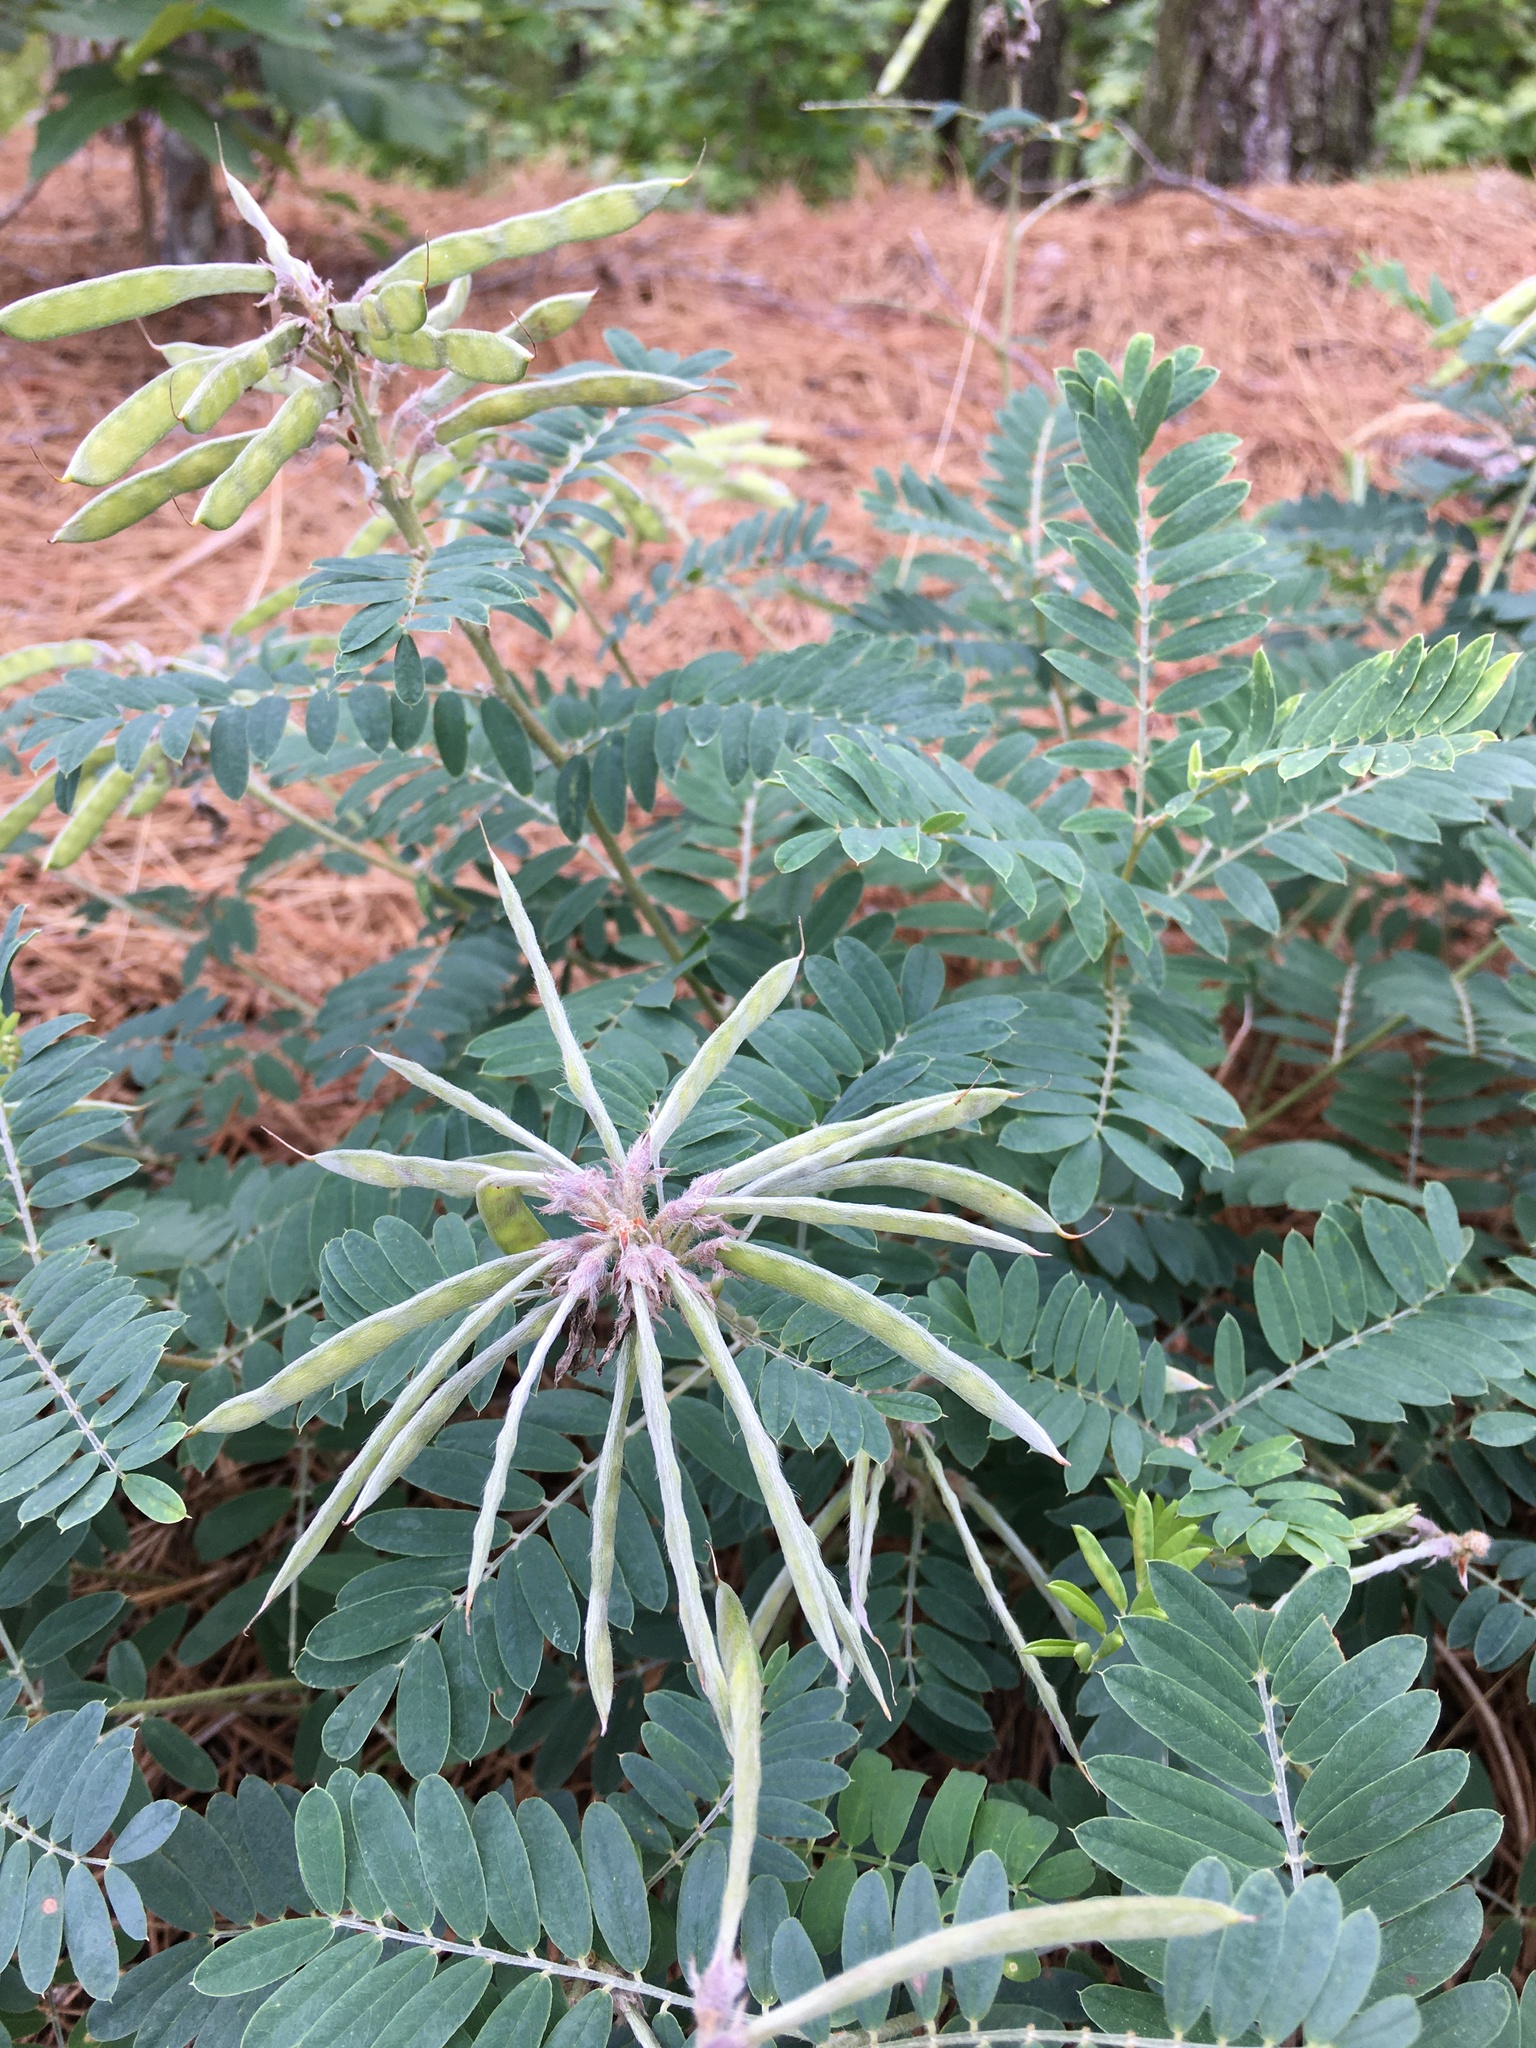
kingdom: Plantae
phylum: Tracheophyta
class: Magnoliopsida
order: Fabales
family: Fabaceae
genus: Tephrosia
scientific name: Tephrosia virginiana
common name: Rabbit-pea
